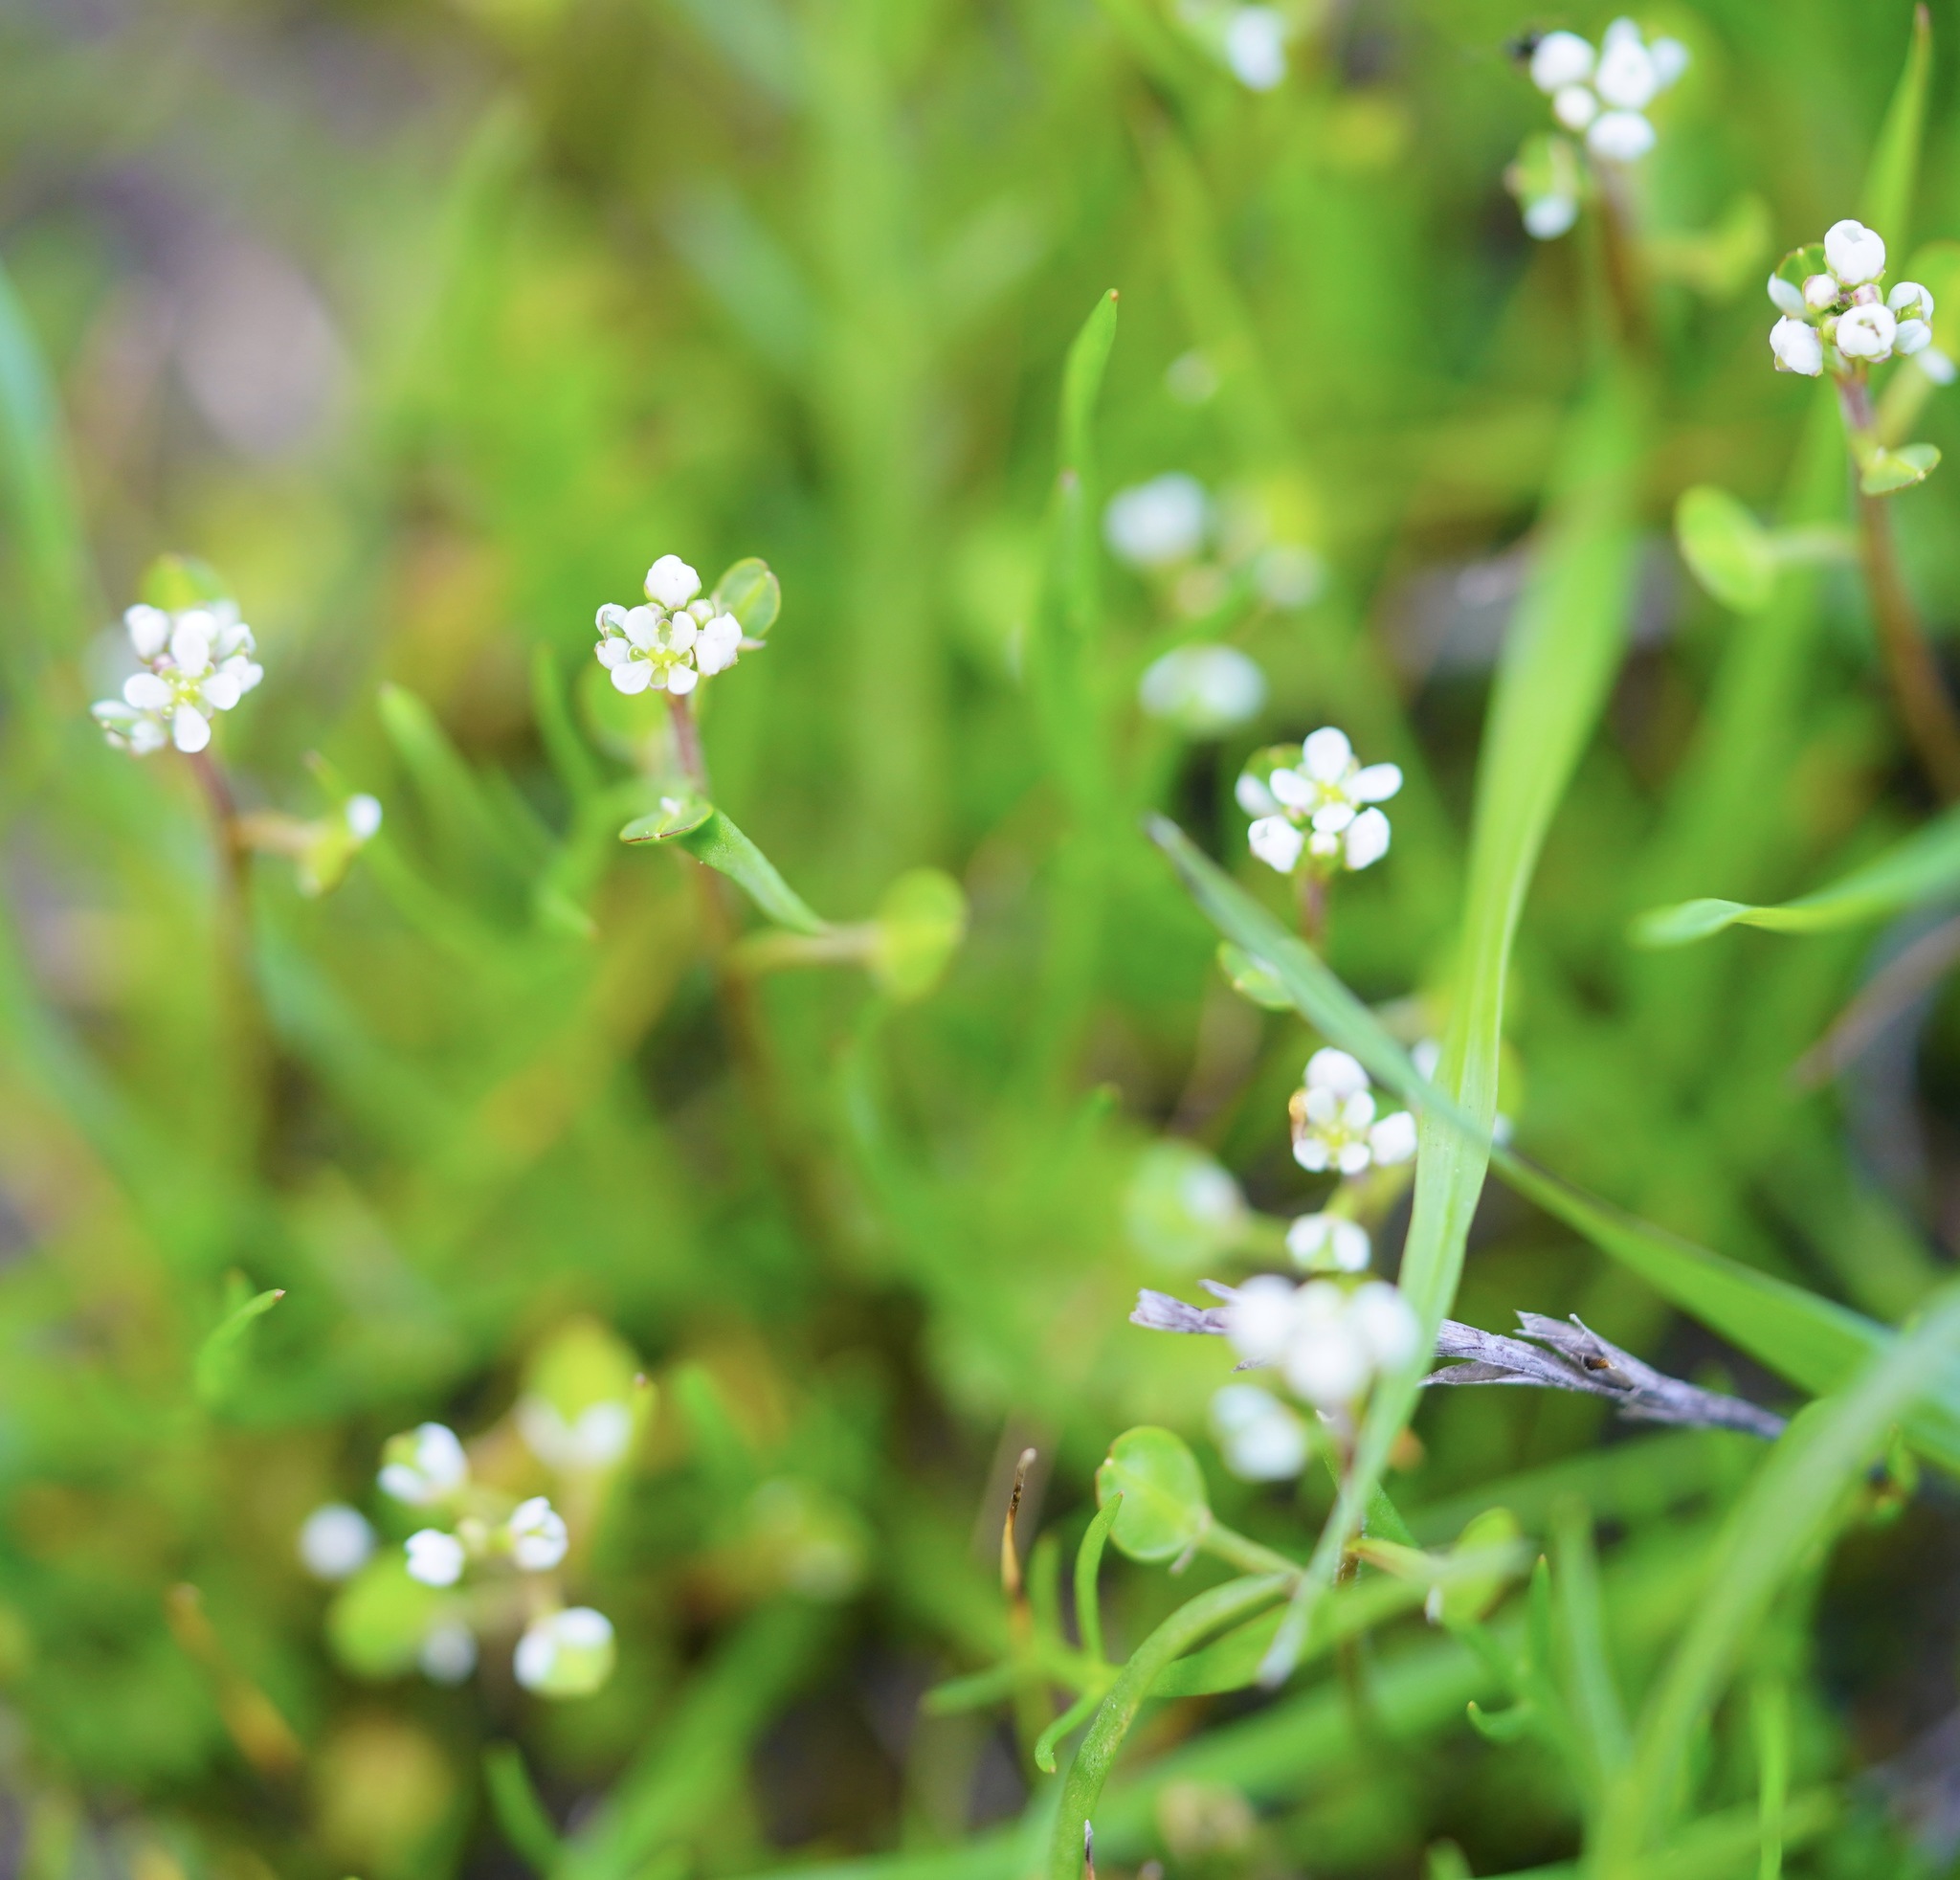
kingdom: Plantae
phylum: Tracheophyta
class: Magnoliopsida
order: Brassicales
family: Brassicaceae
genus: Lepidium
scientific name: Lepidium nitidum
